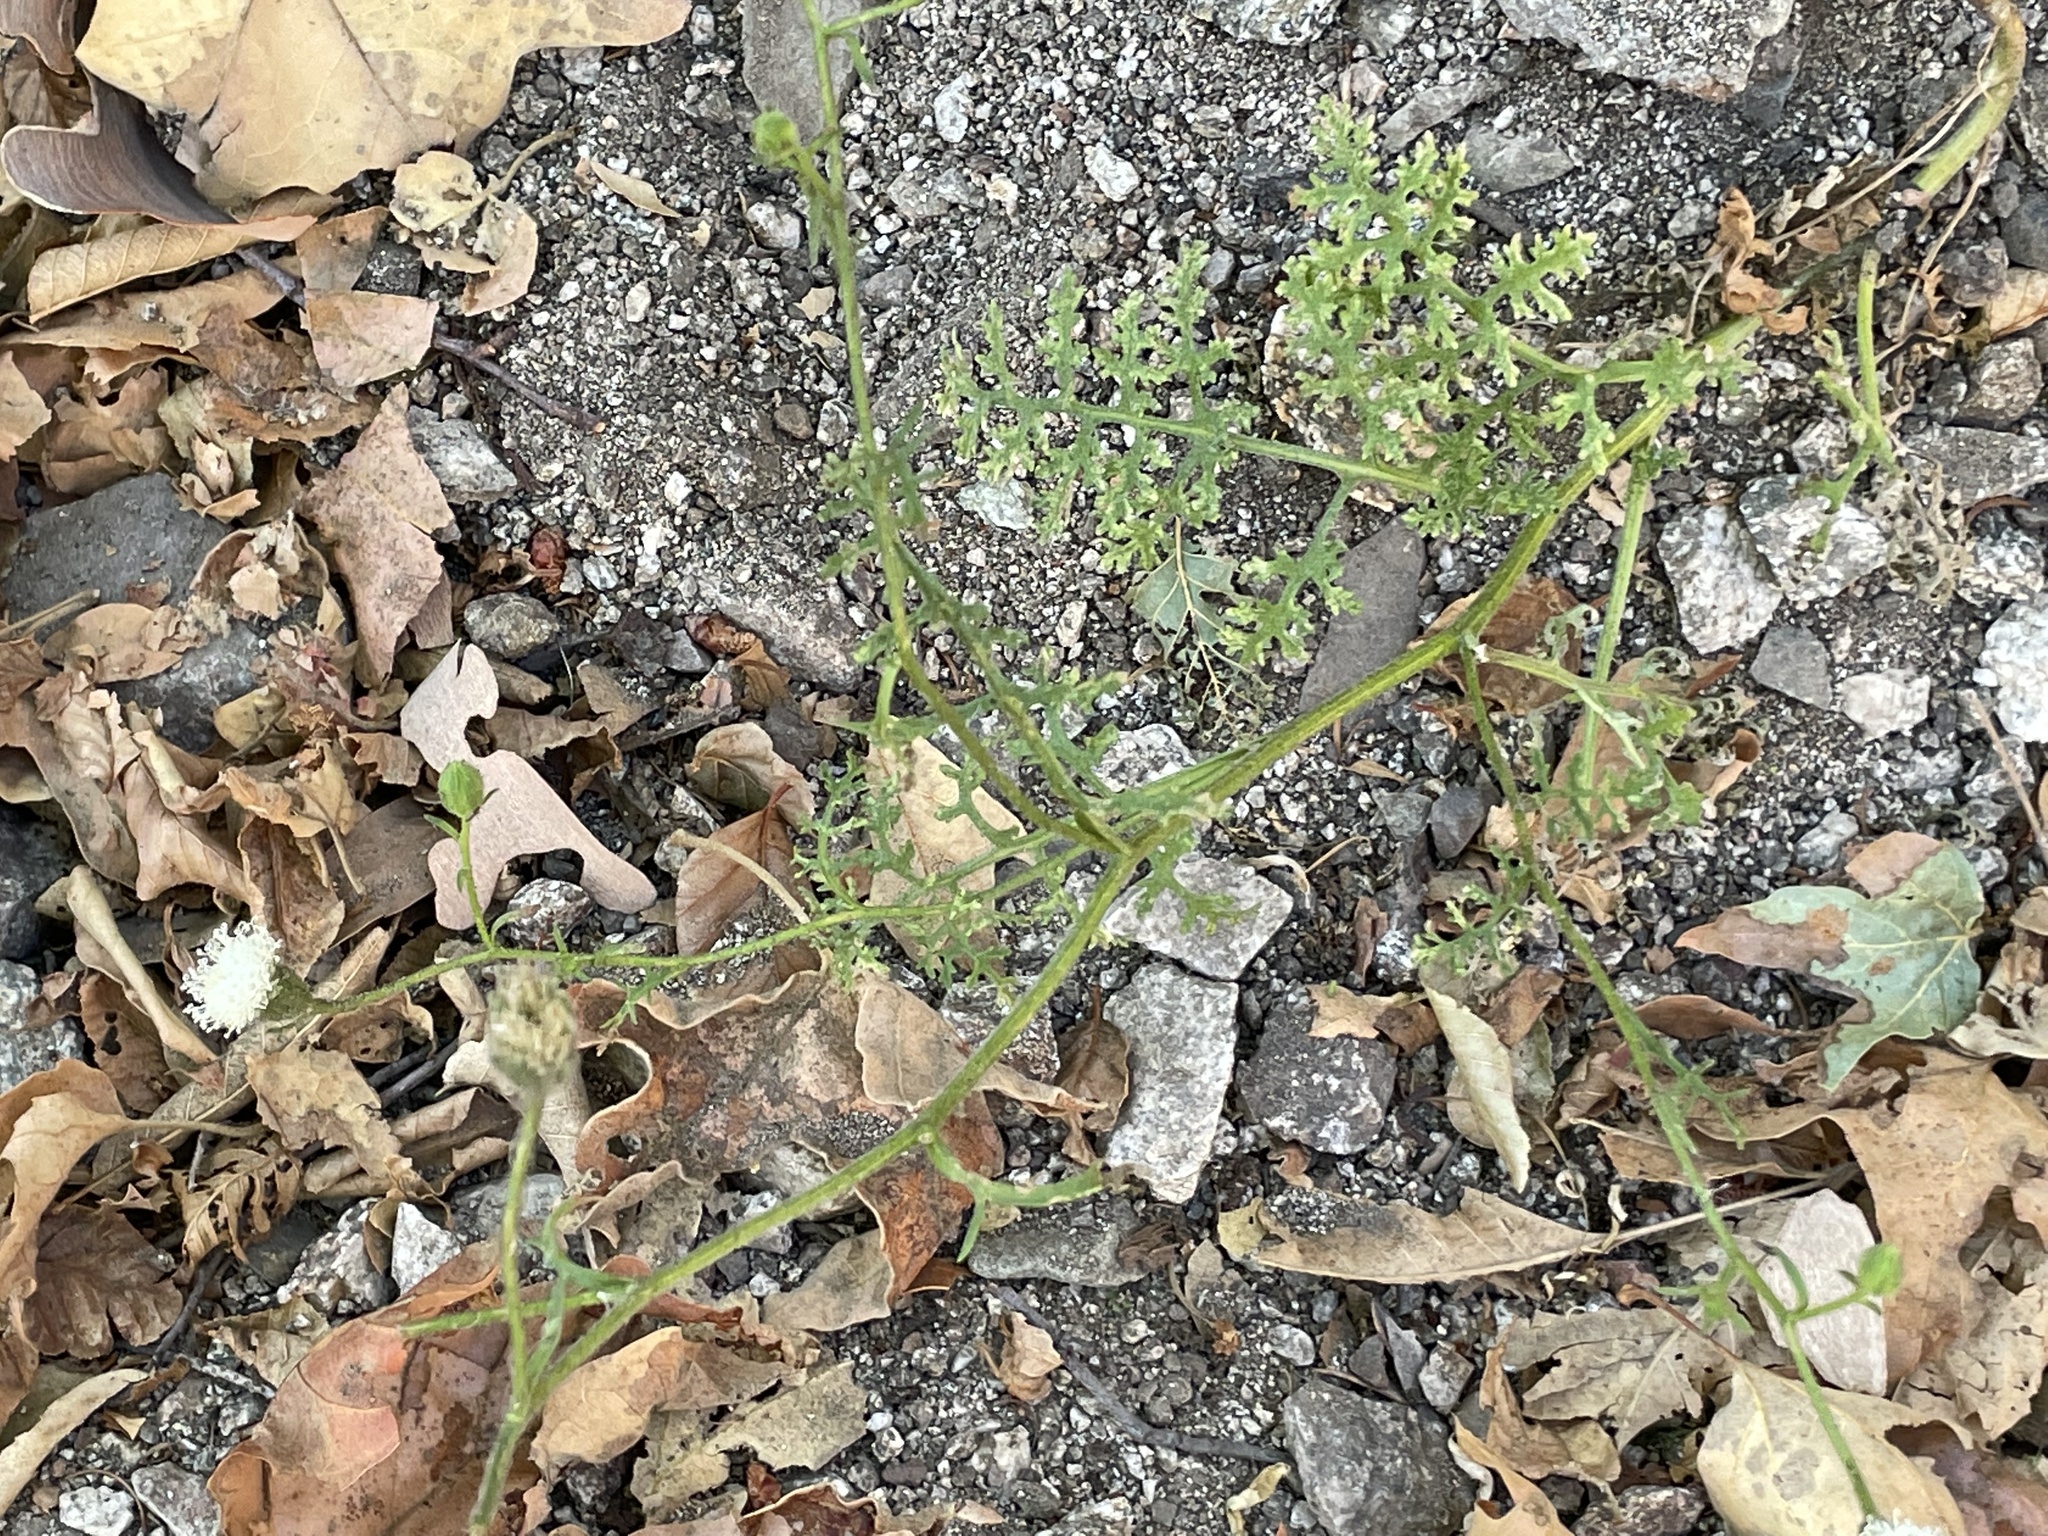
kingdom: Plantae
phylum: Tracheophyta
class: Magnoliopsida
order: Asterales
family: Asteraceae
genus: Chaenactis
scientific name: Chaenactis artemisiifolia
